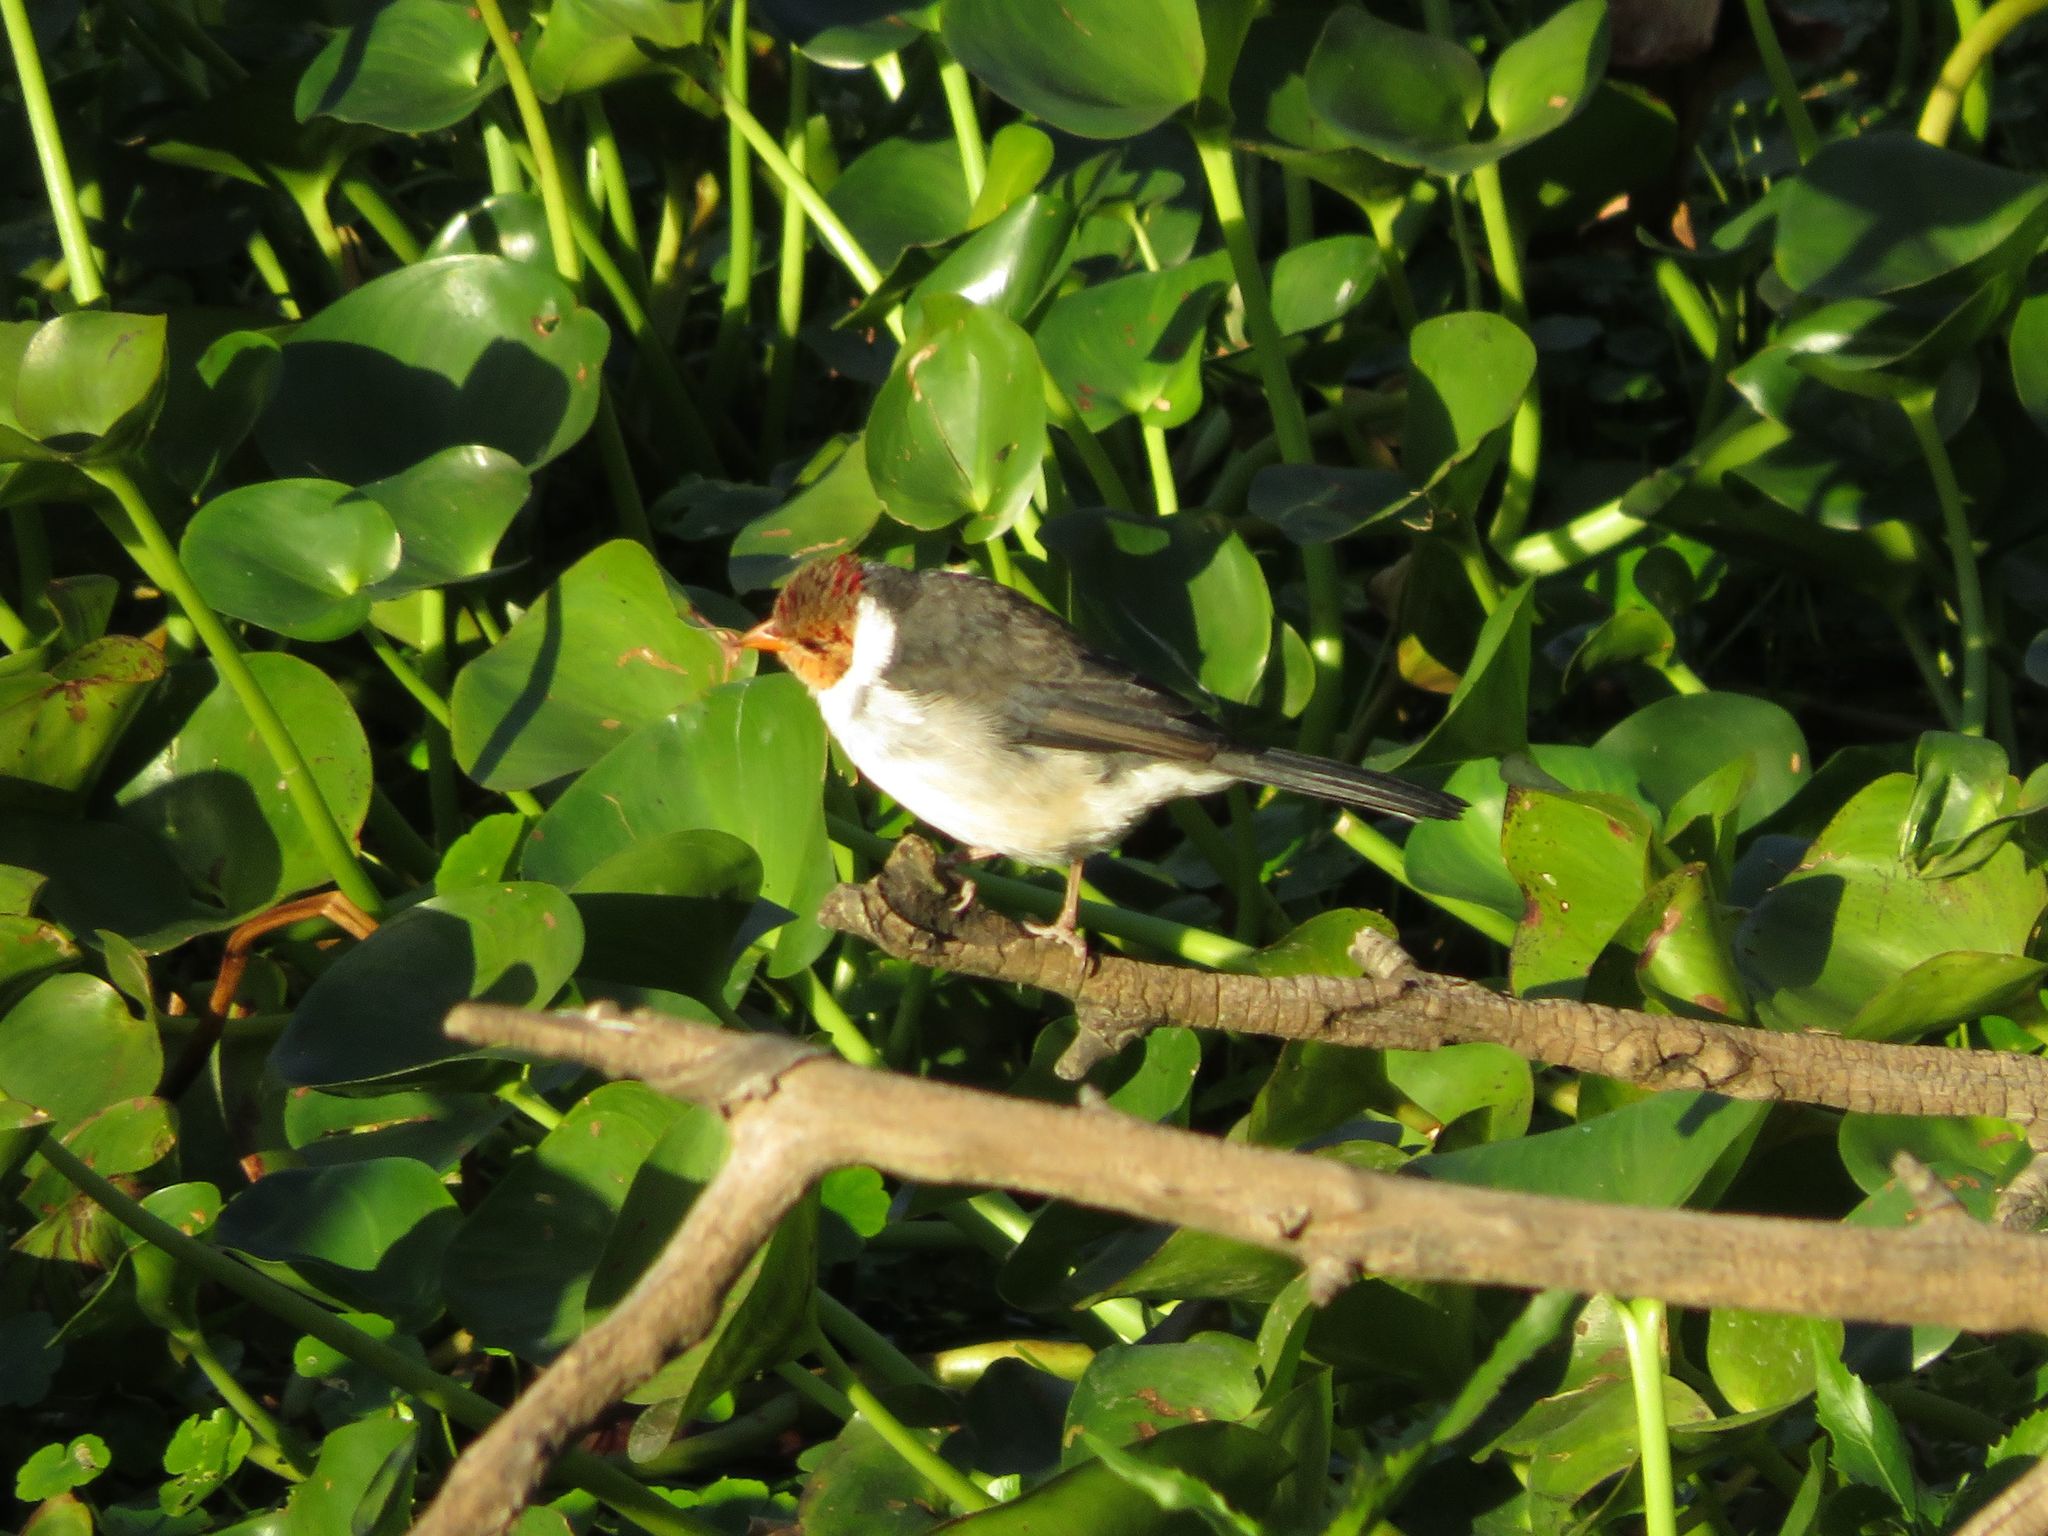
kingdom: Animalia
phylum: Chordata
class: Aves
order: Passeriformes
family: Thraupidae
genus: Paroaria
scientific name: Paroaria capitata
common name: Yellow-billed cardinal
